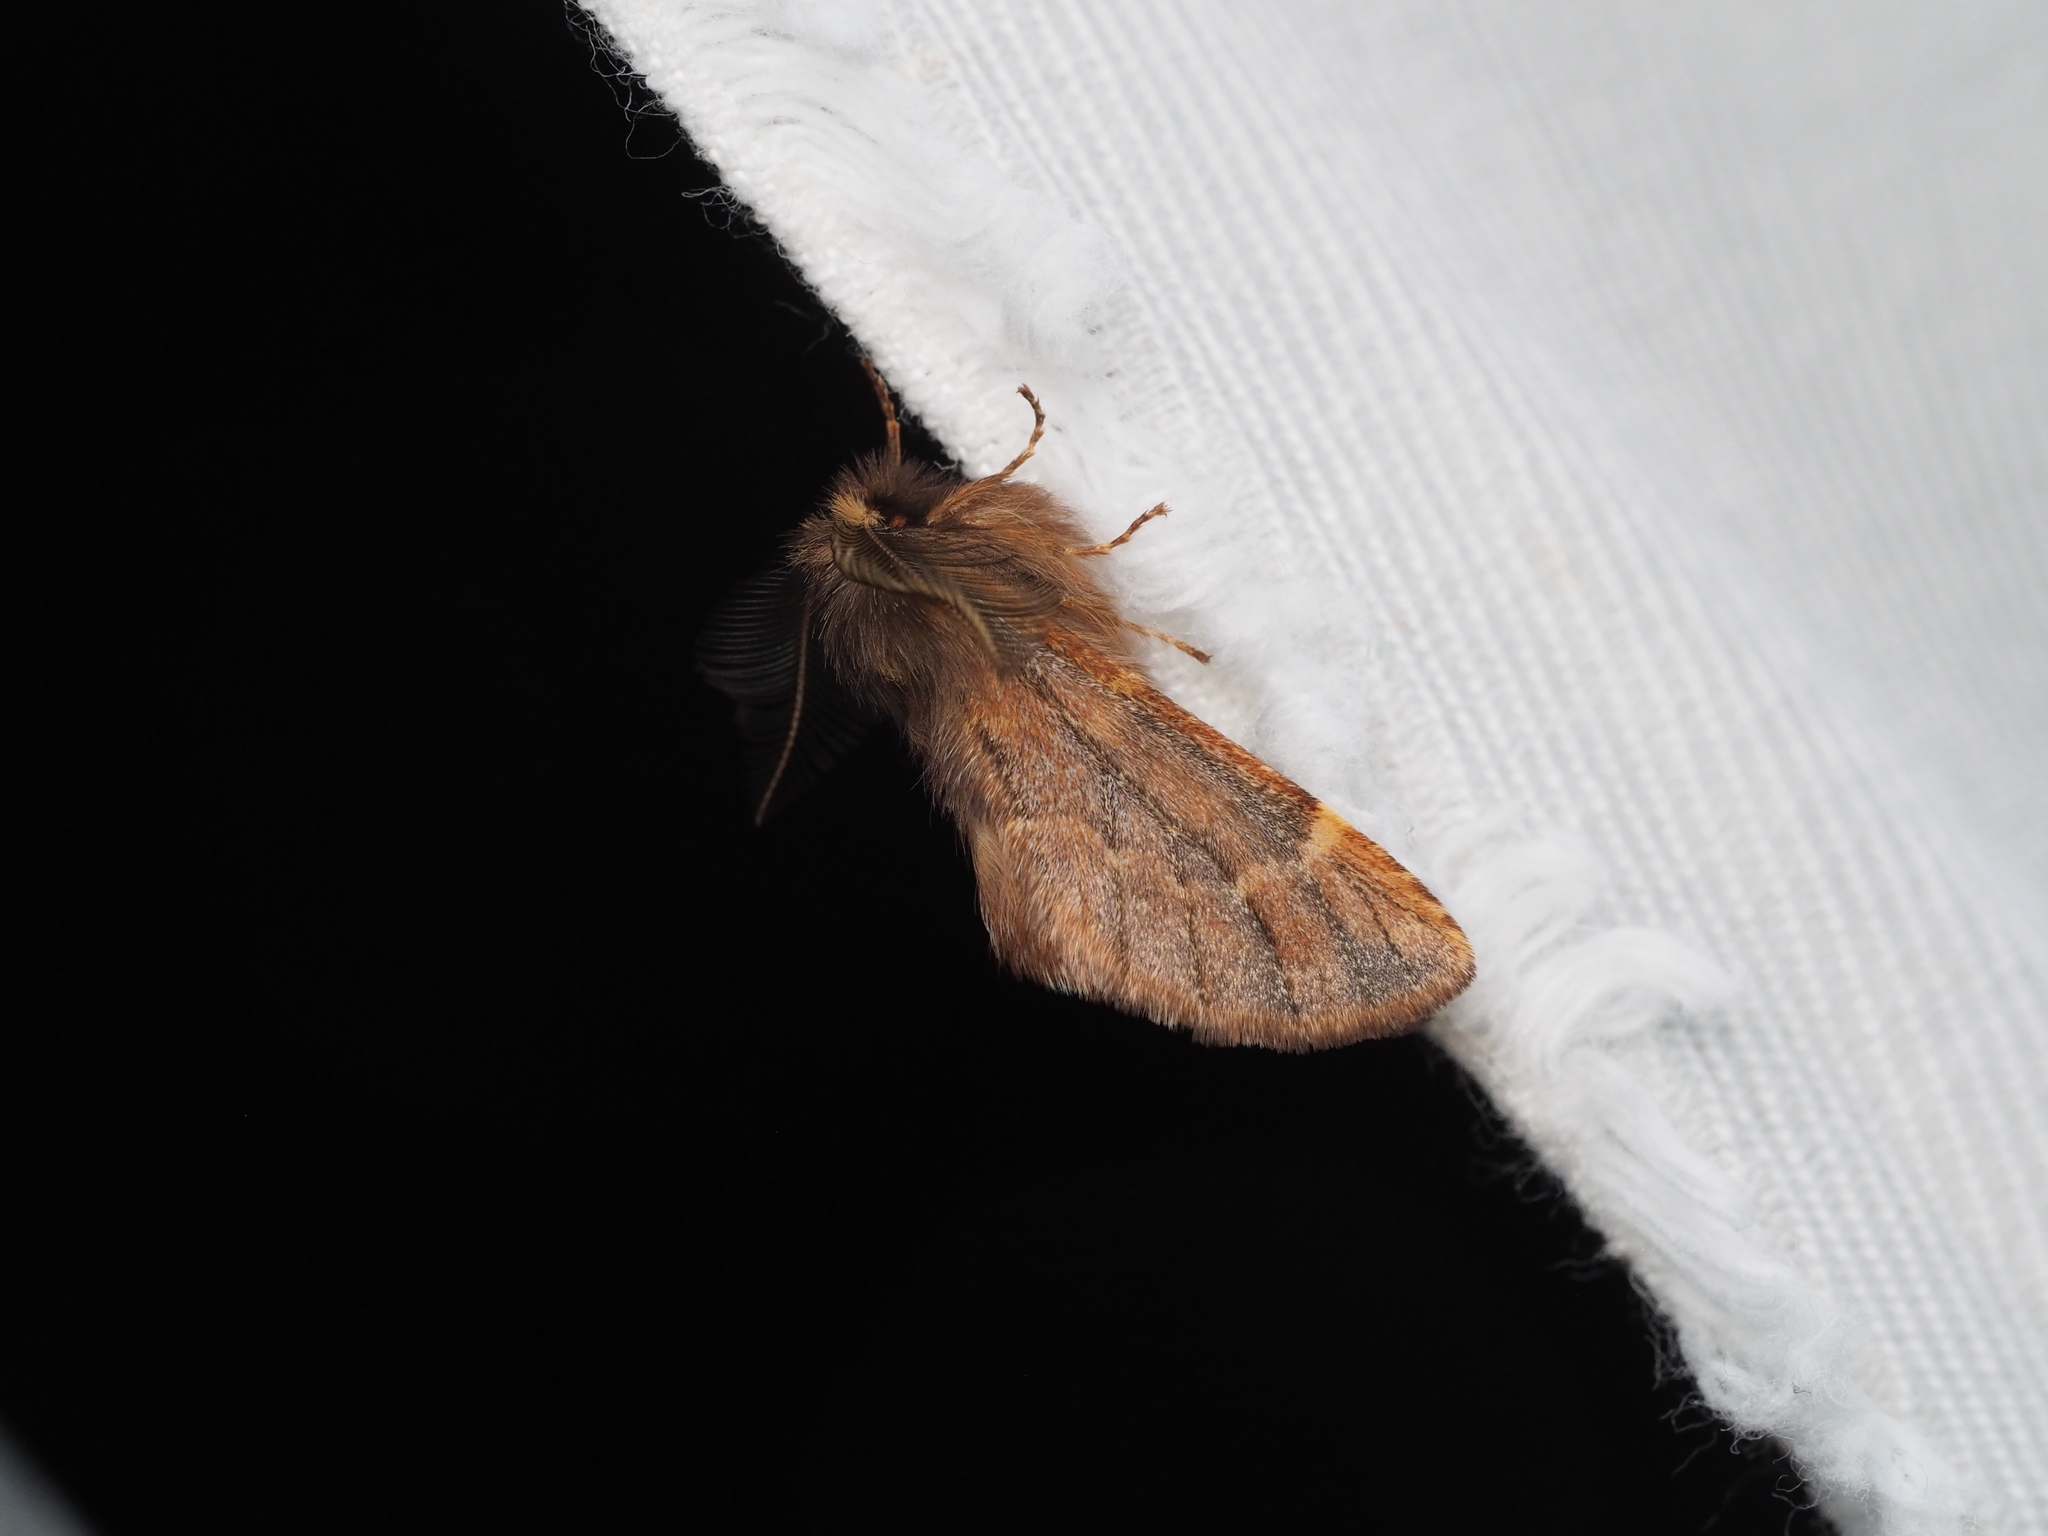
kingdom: Animalia
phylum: Arthropoda
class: Insecta
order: Lepidoptera
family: Notodontidae
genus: Ptilophora
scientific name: Ptilophora plumigera
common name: Plumed prominent
